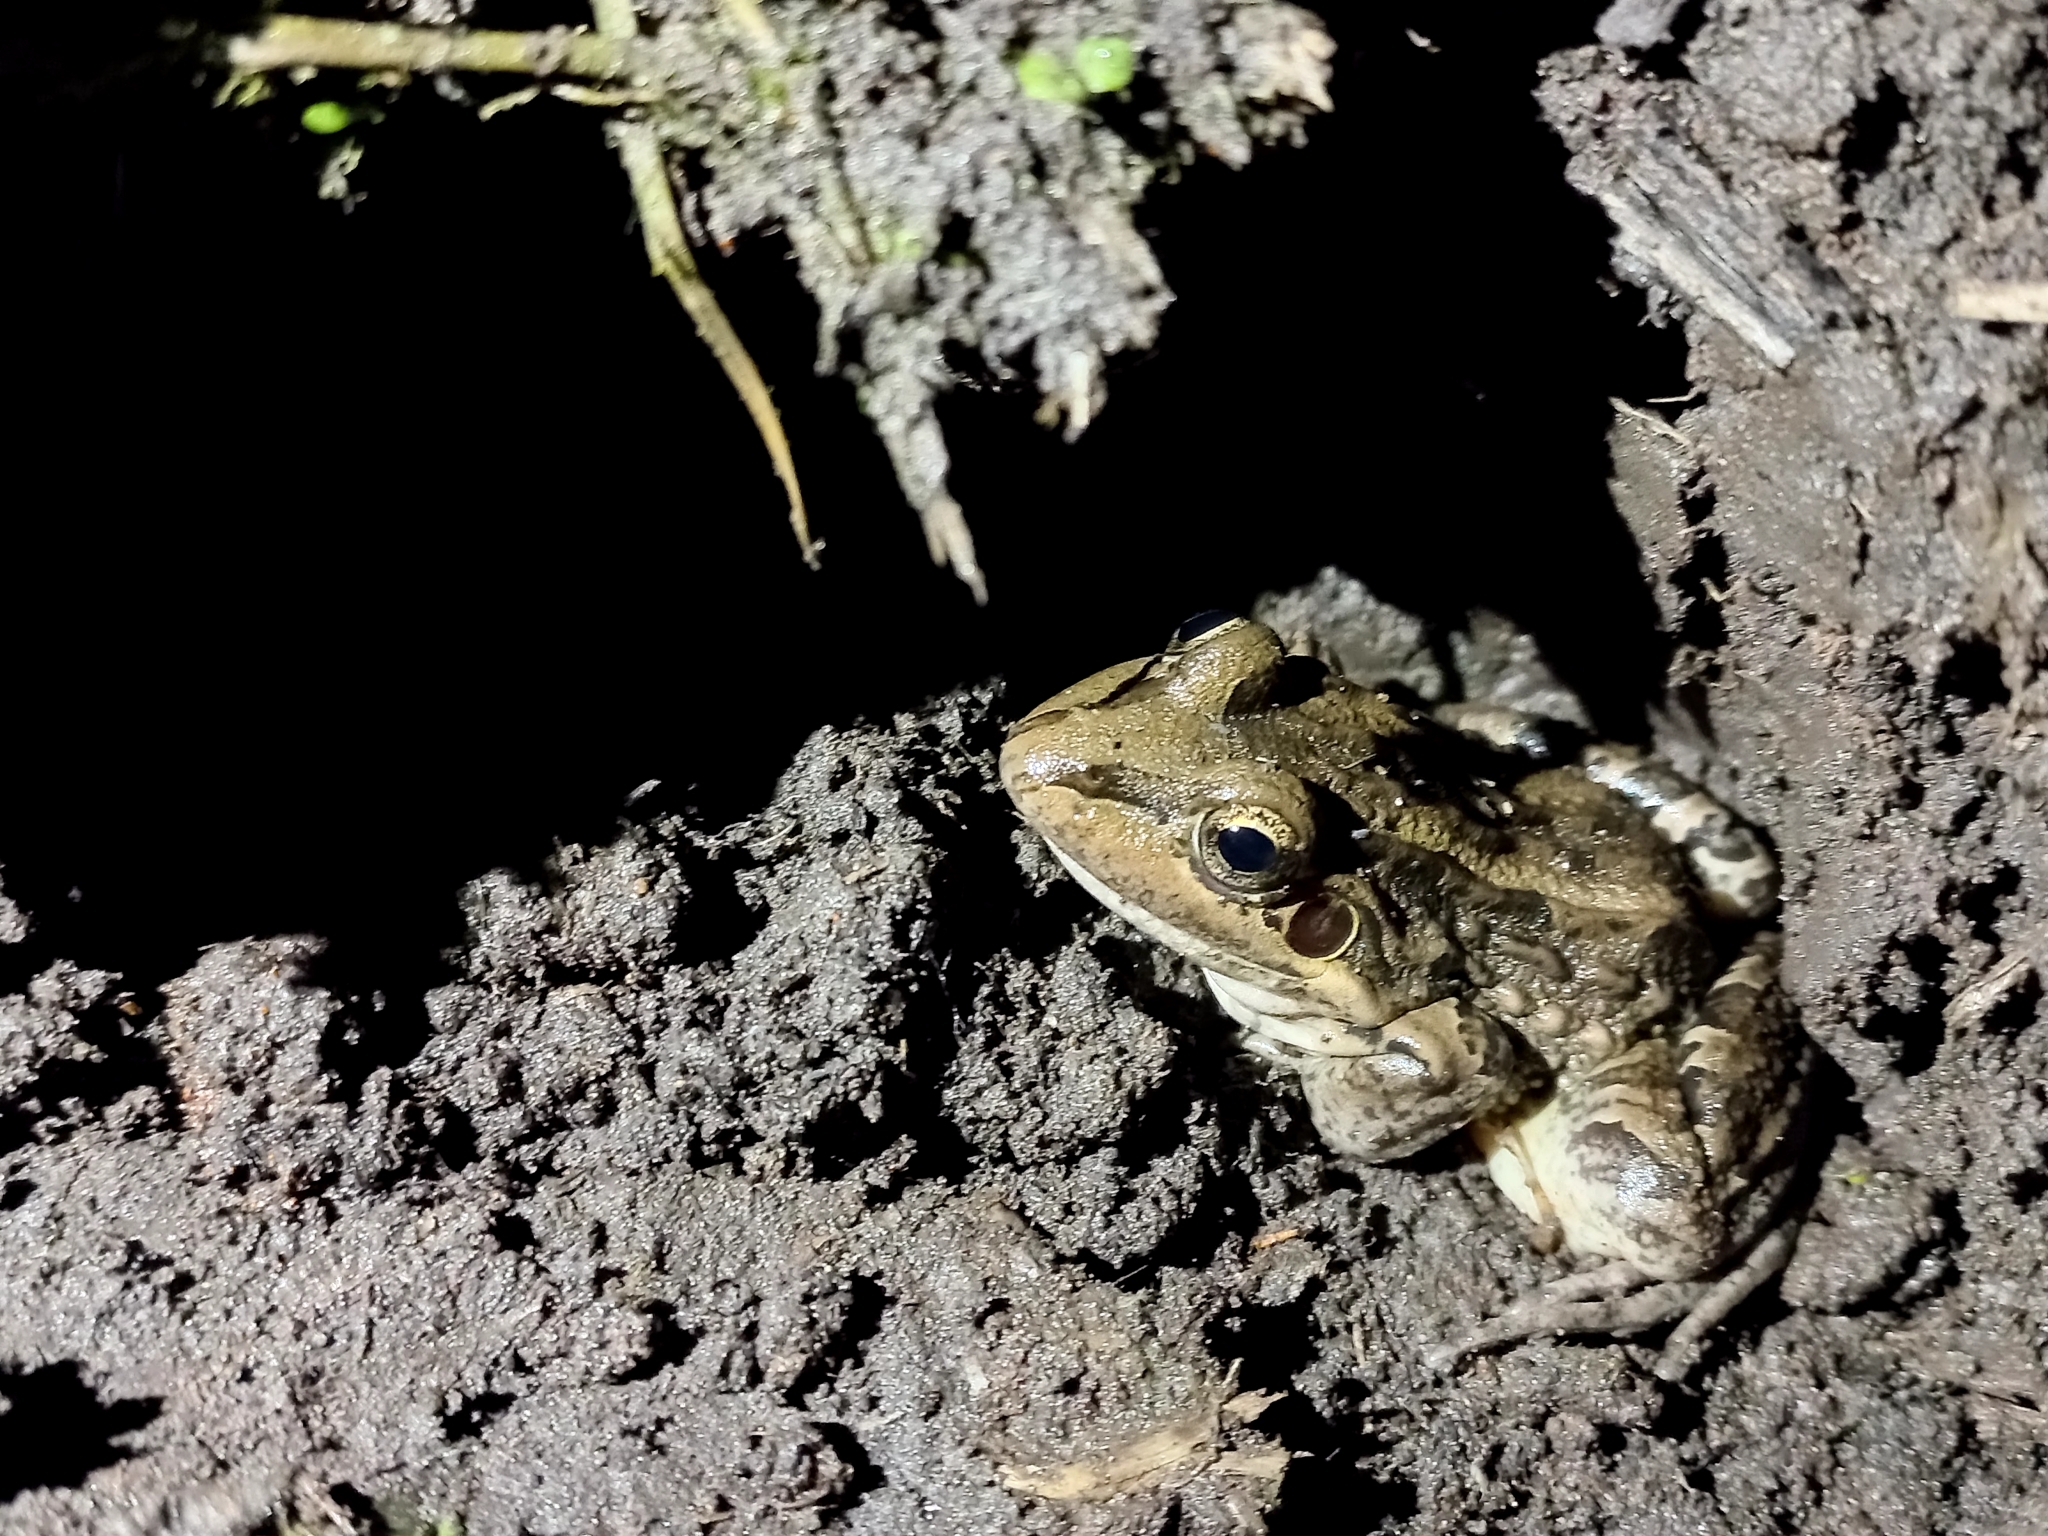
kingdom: Animalia
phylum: Chordata
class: Amphibia
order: Anura
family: Leptodactylidae
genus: Leptodactylus
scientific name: Leptodactylus luctator
